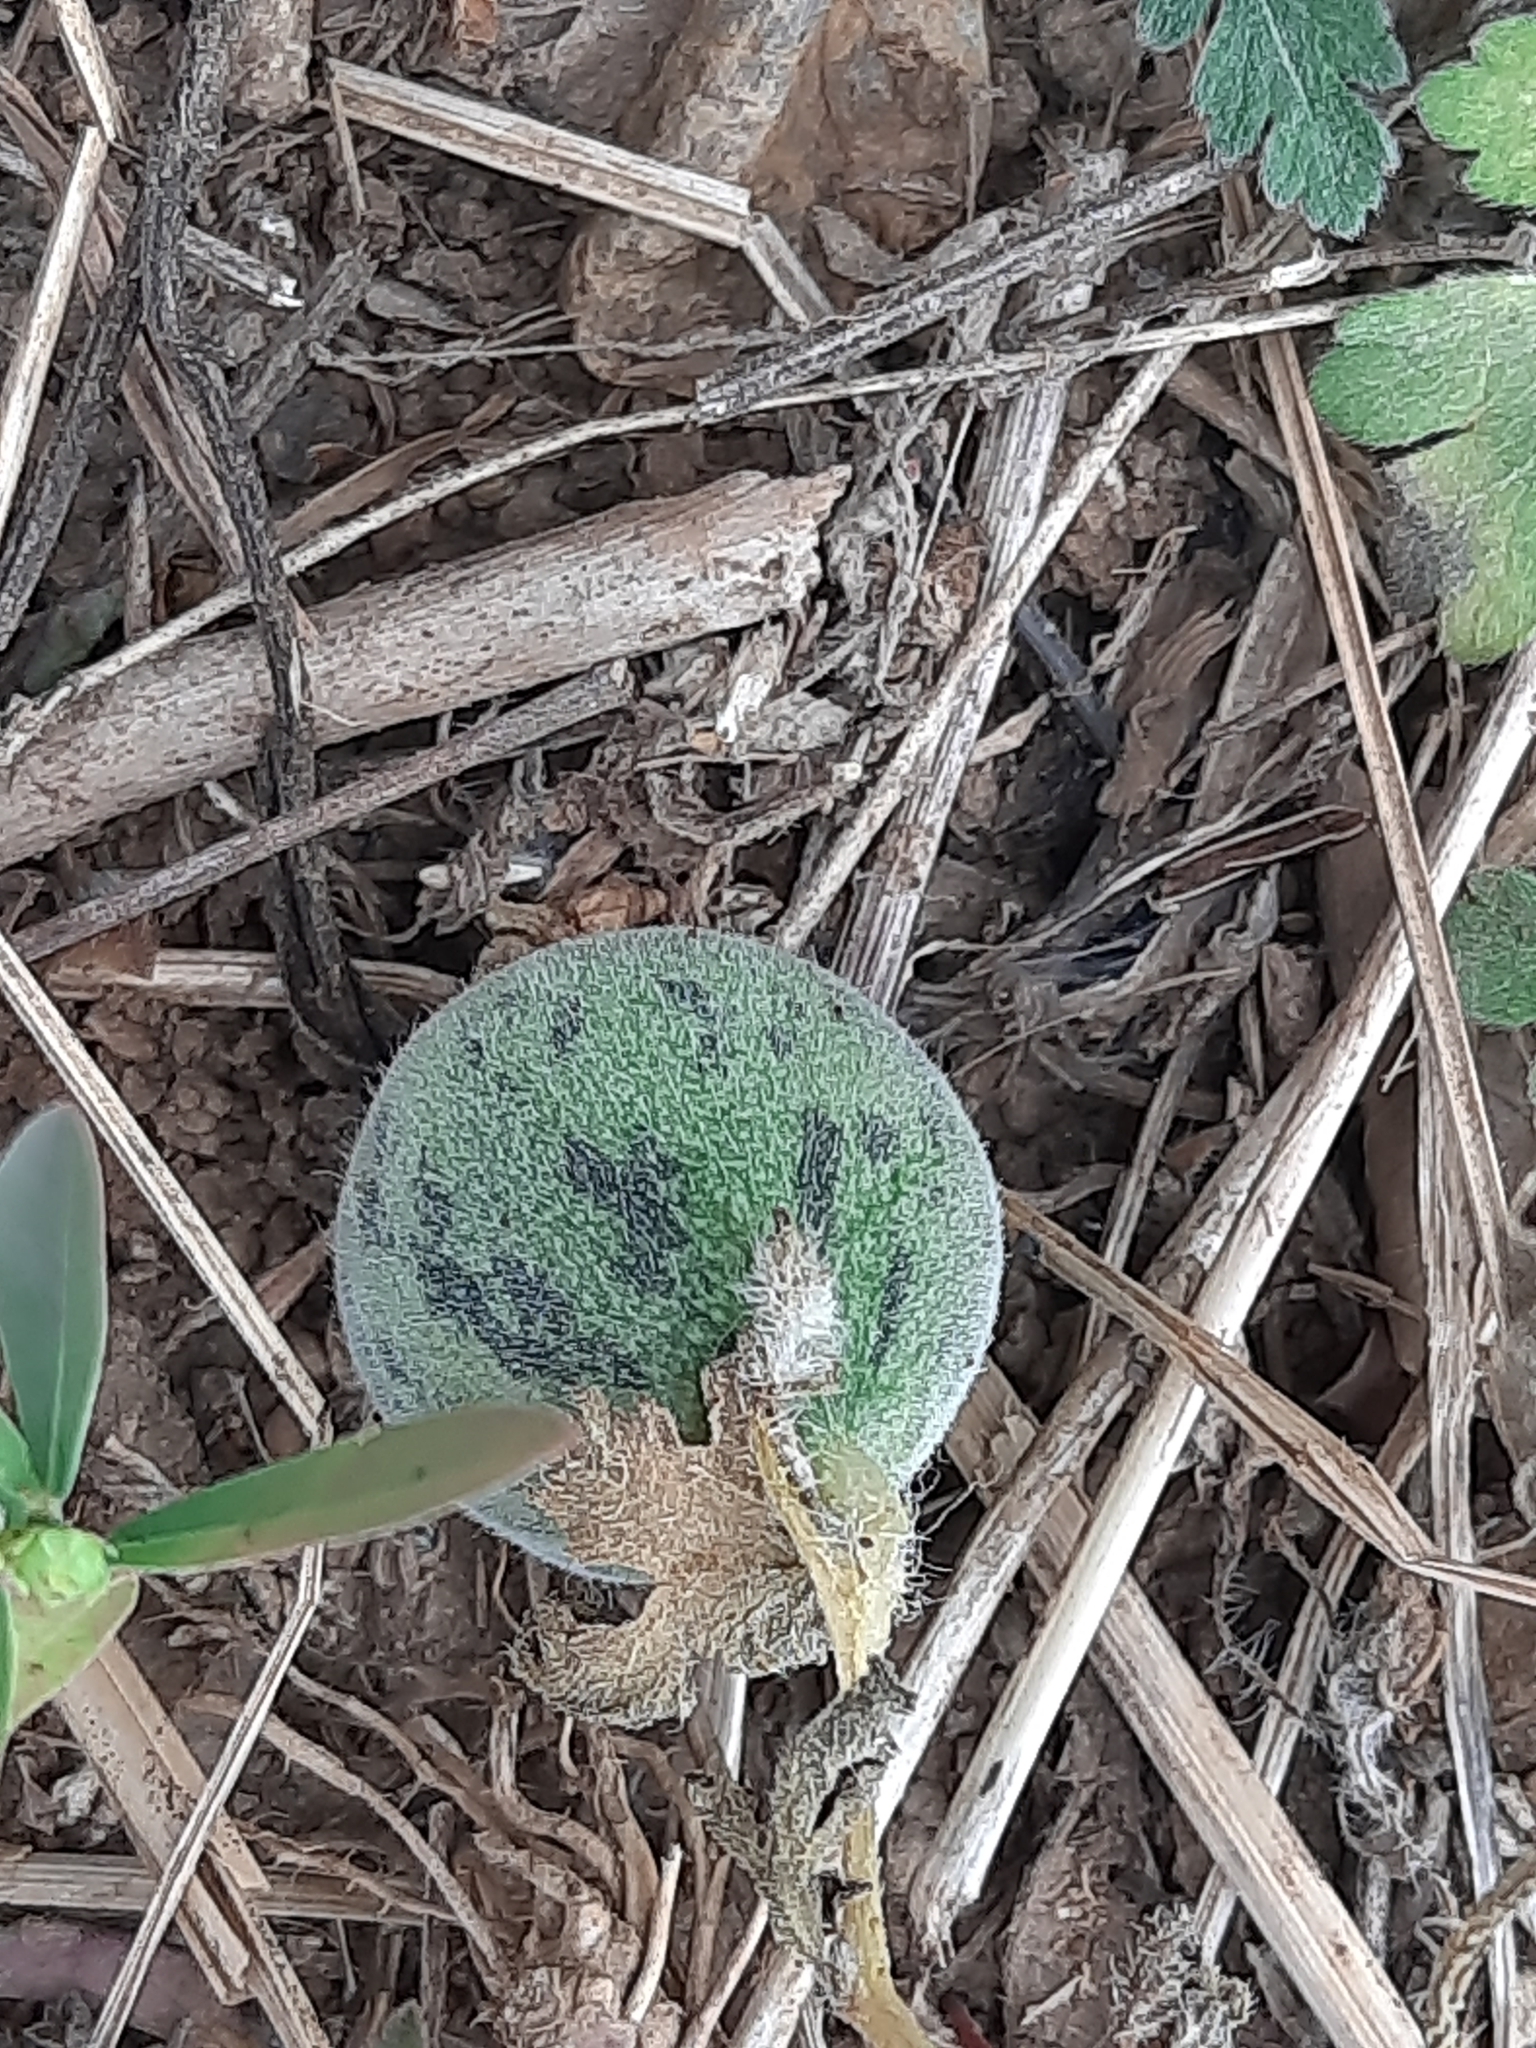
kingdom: Plantae
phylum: Tracheophyta
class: Magnoliopsida
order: Cucurbitales
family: Cucurbitaceae
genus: Cucumis
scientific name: Cucumis melo
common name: Melon
